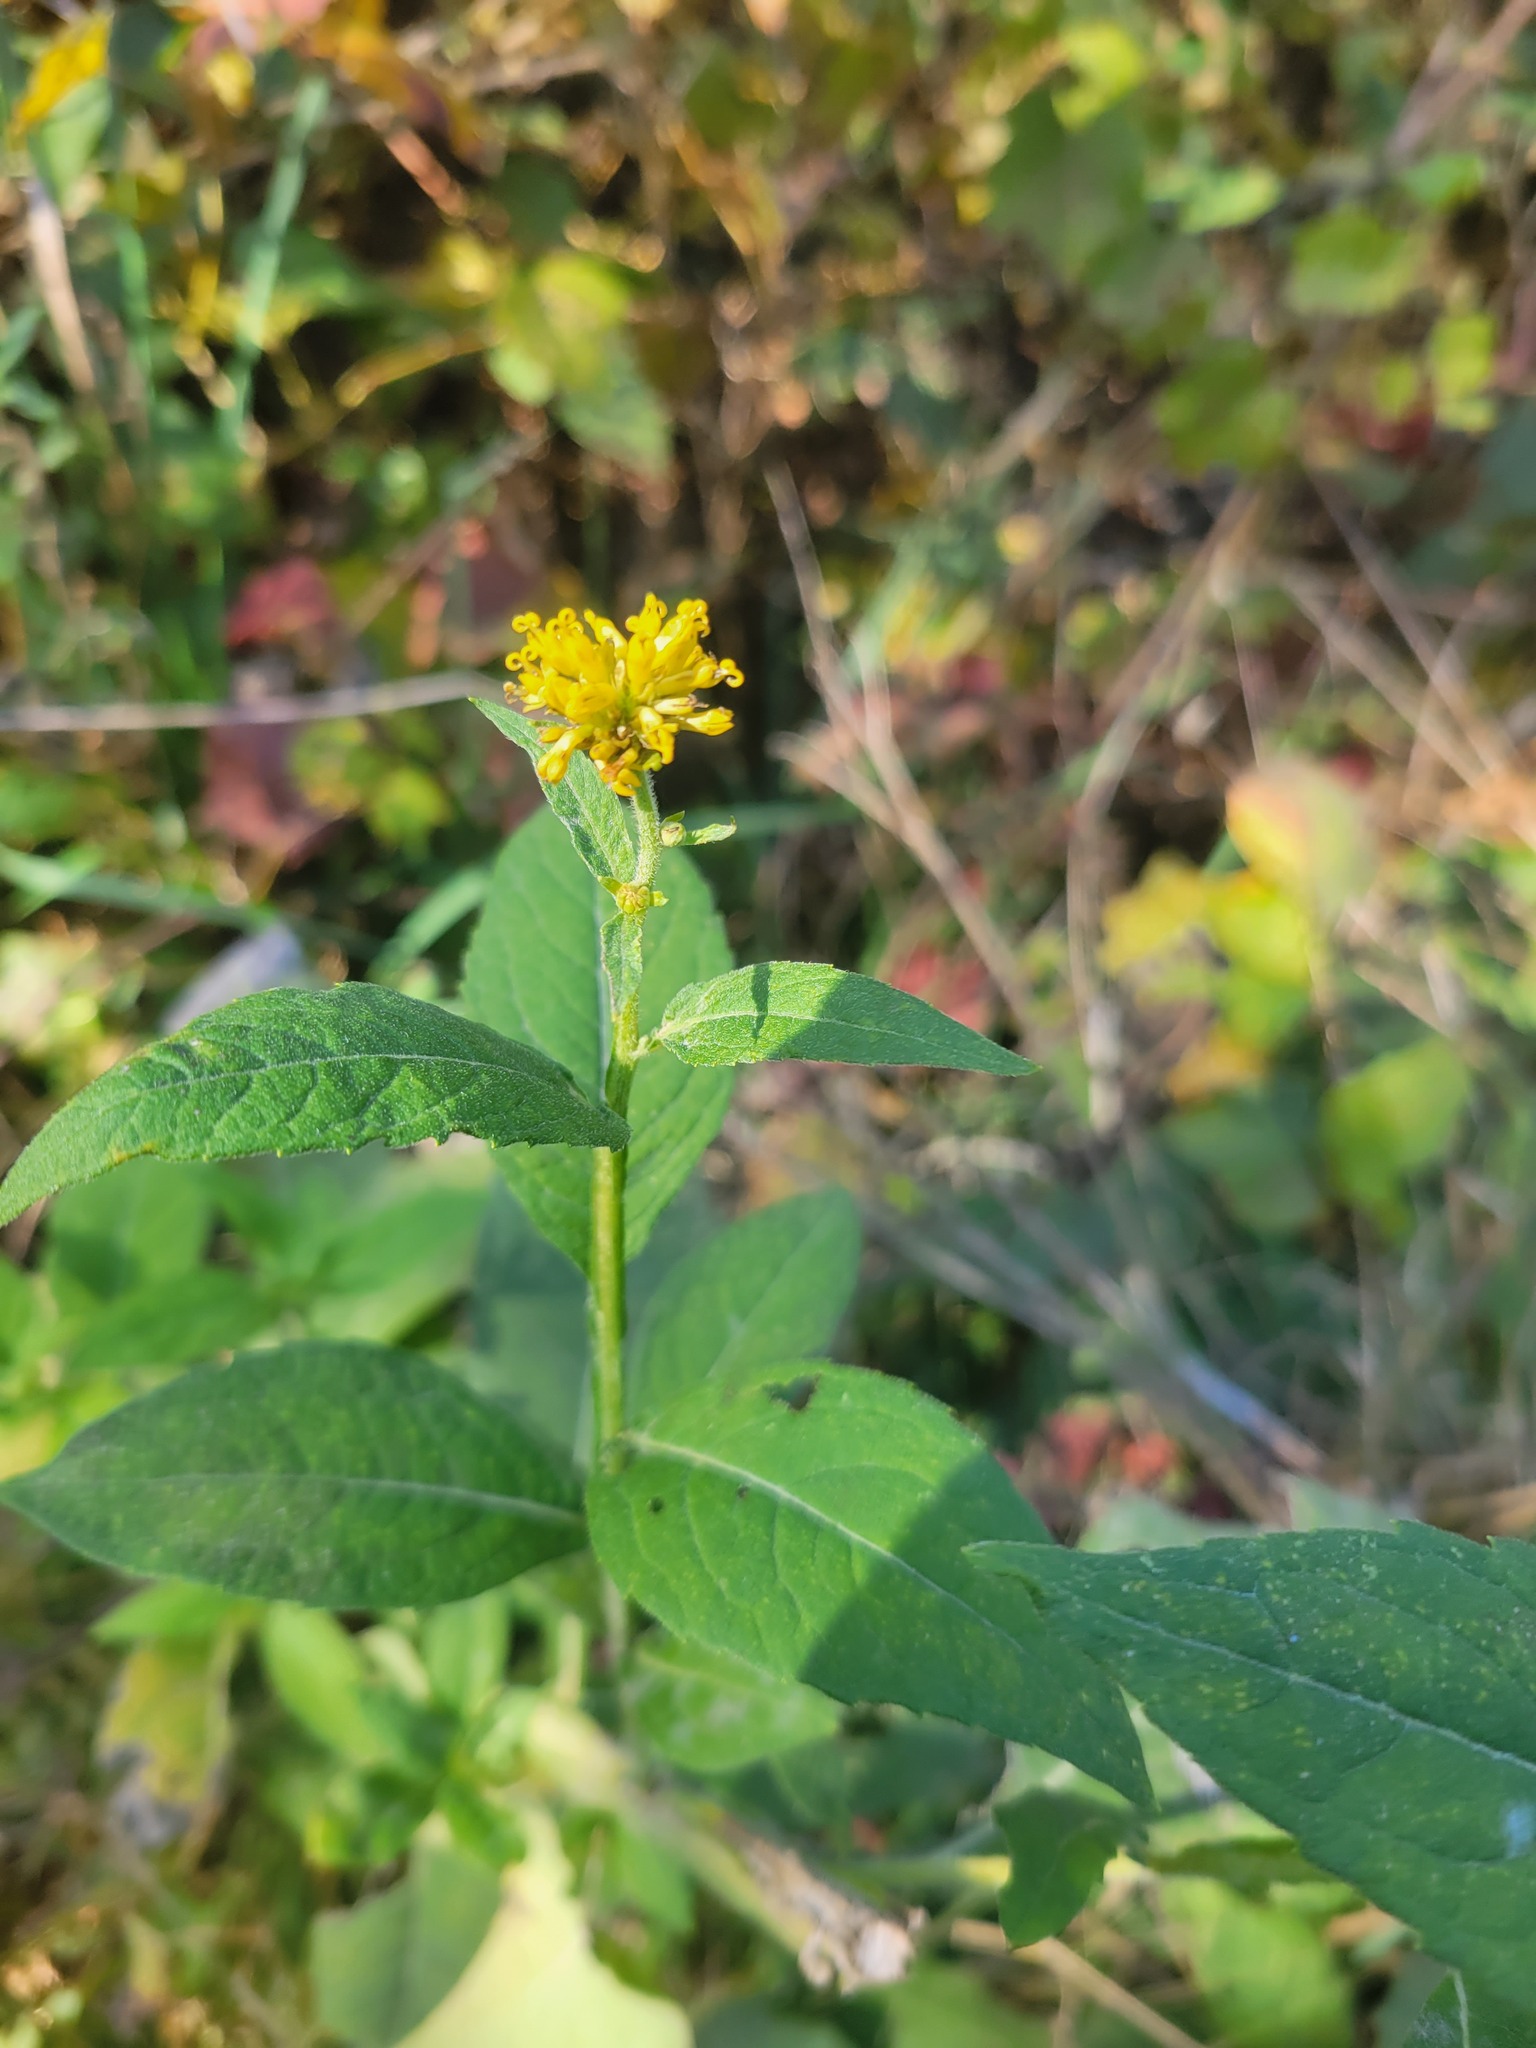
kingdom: Plantae
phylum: Tracheophyta
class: Magnoliopsida
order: Asterales
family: Asteraceae
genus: Verbesina
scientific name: Verbesina alternifolia
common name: Wingstem
